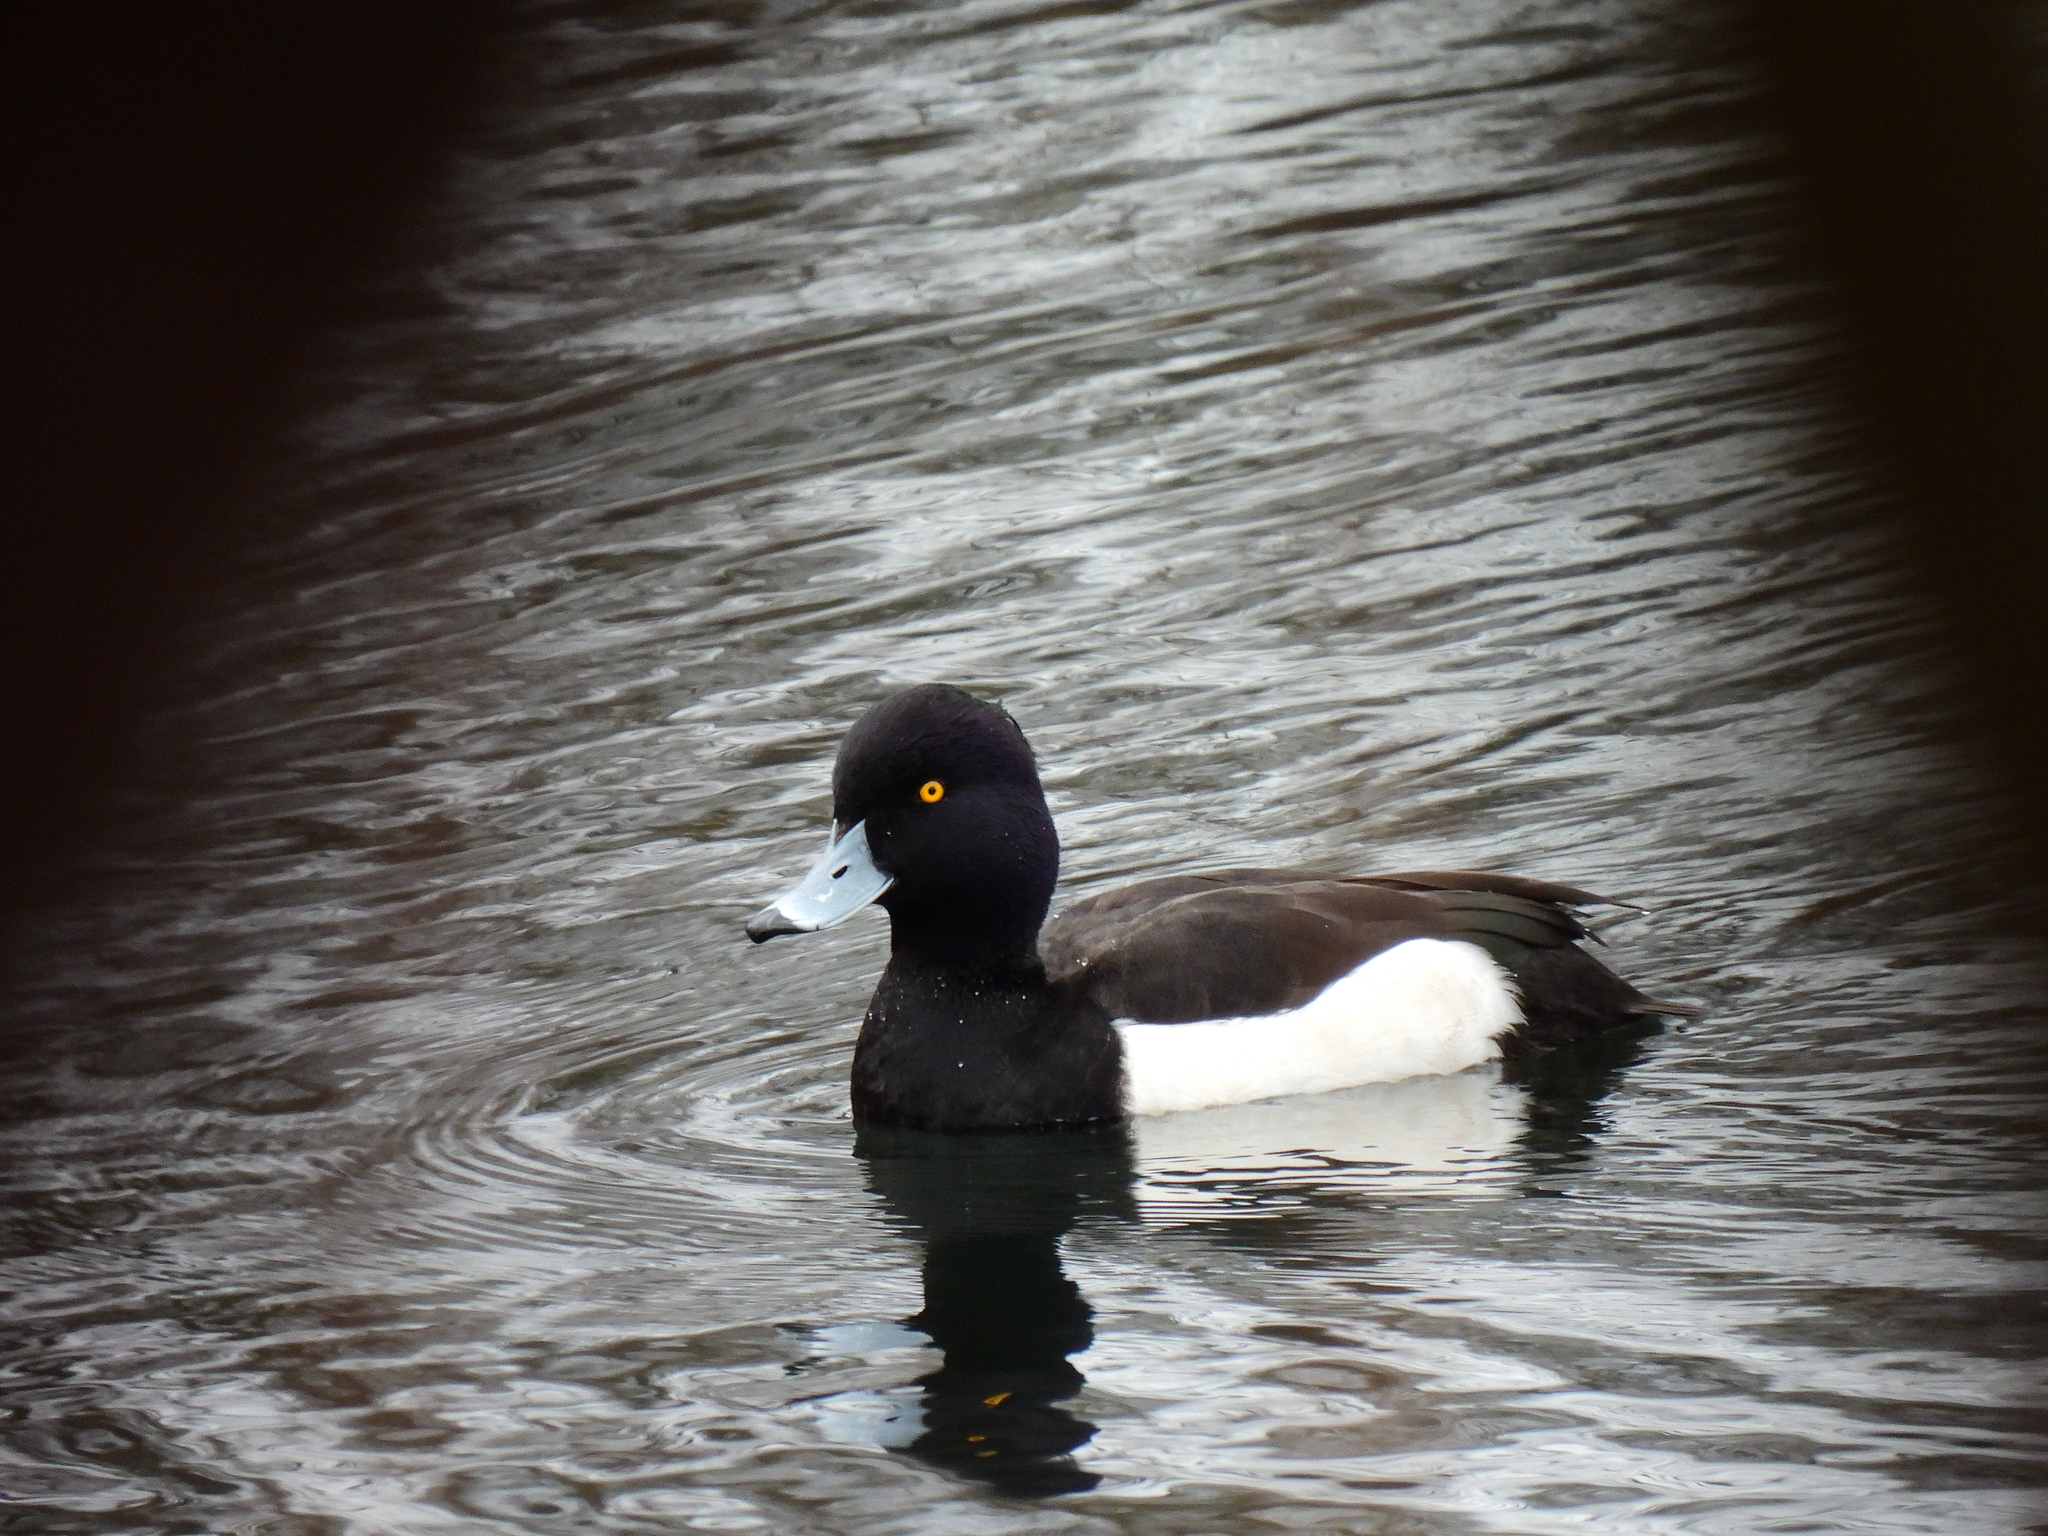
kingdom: Animalia
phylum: Chordata
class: Aves
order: Anseriformes
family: Anatidae
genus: Aythya
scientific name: Aythya fuligula
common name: Tufted duck
